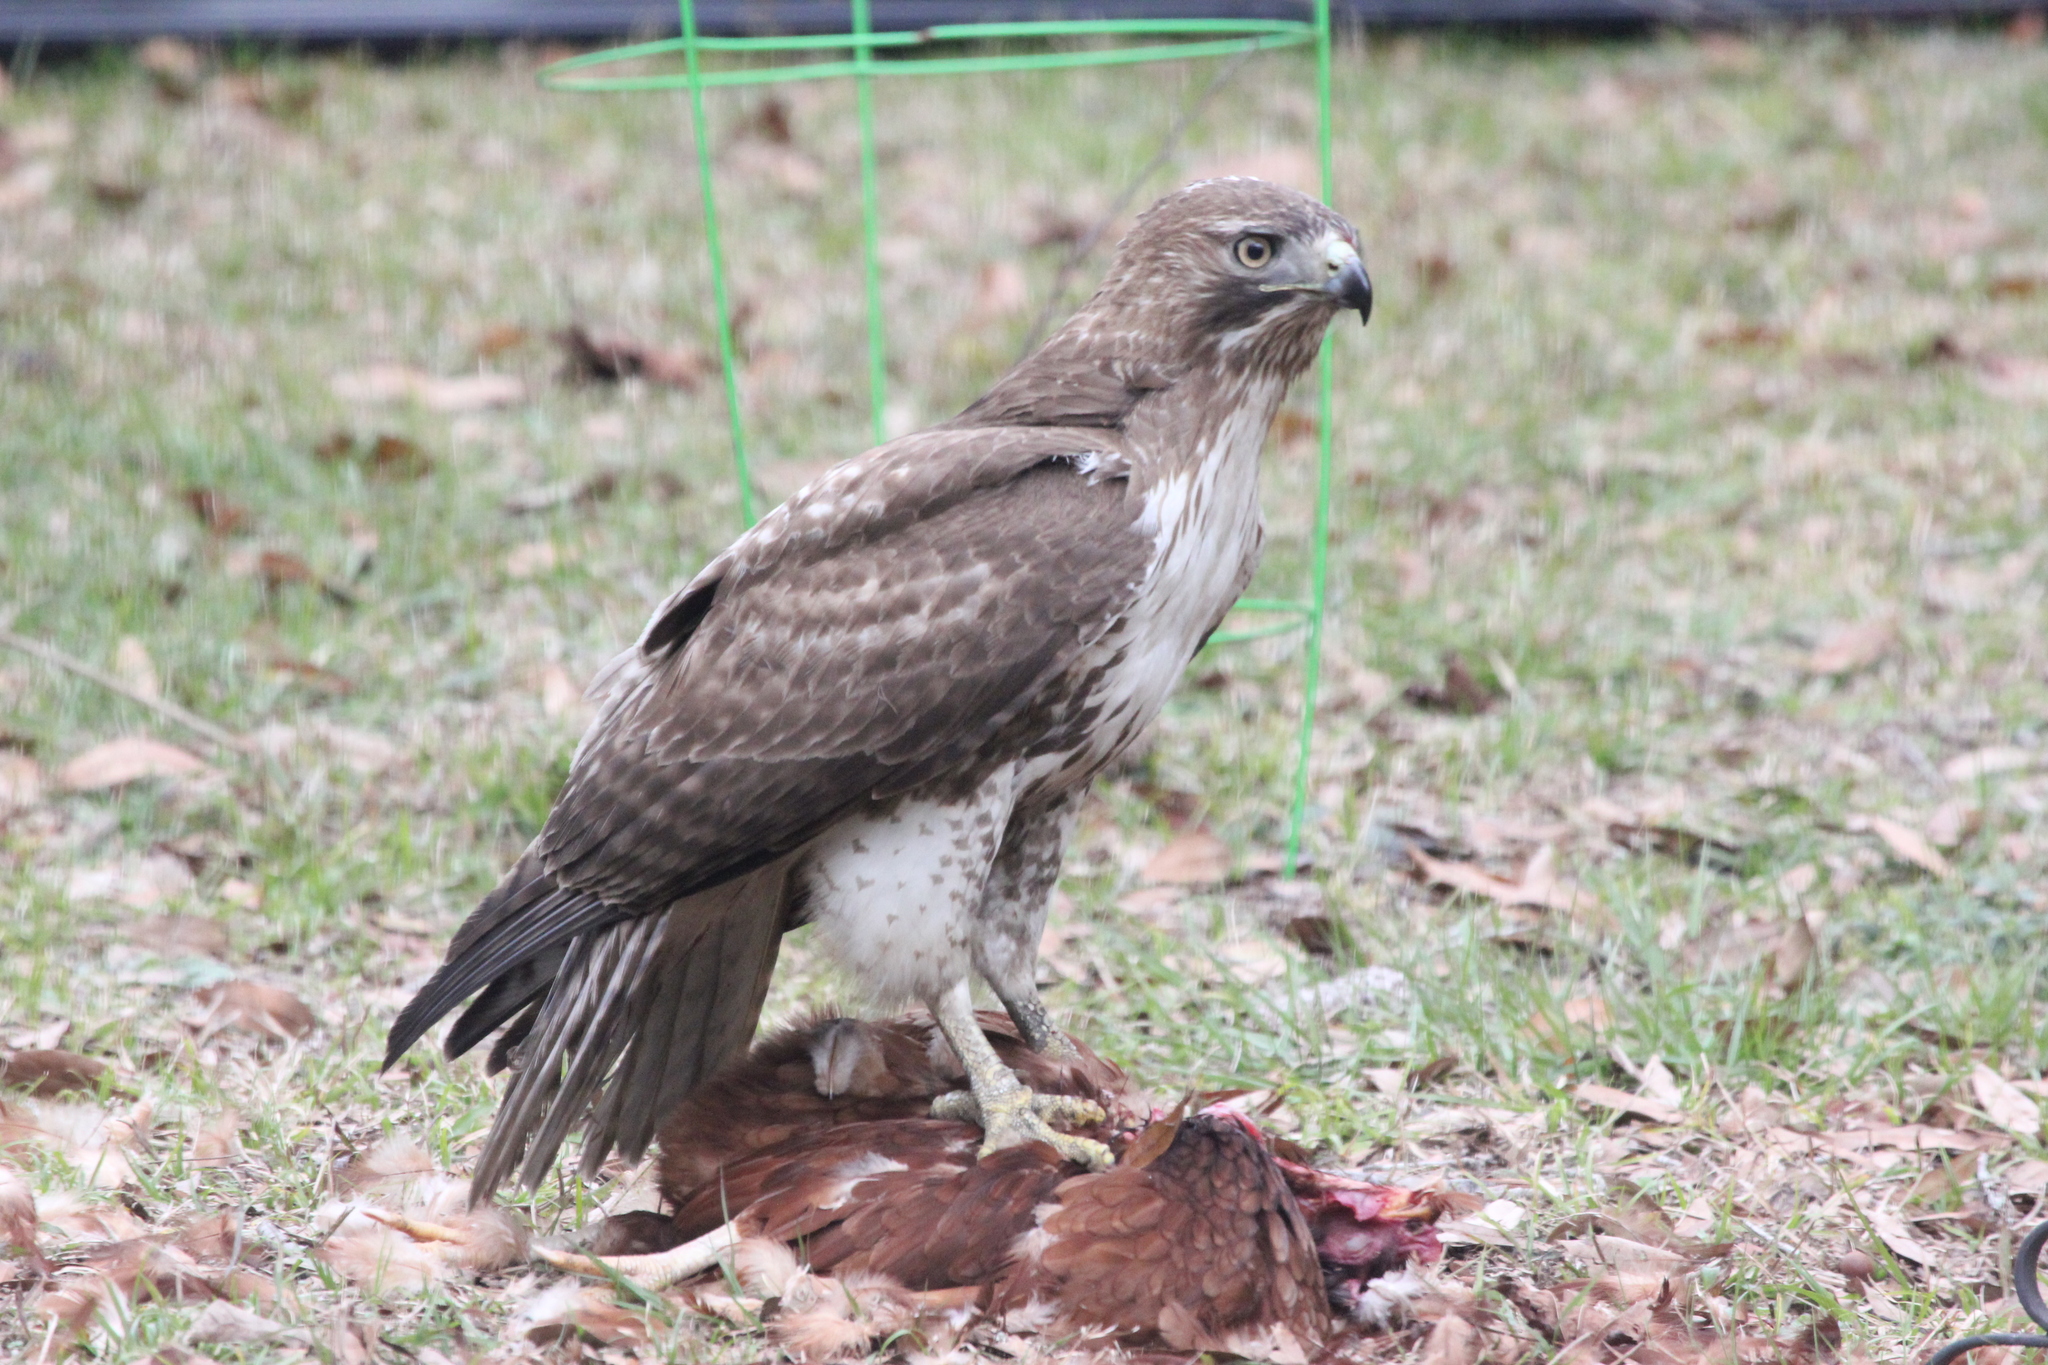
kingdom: Animalia
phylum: Chordata
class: Aves
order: Accipitriformes
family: Accipitridae
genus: Buteo
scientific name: Buteo jamaicensis
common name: Red-tailed hawk
